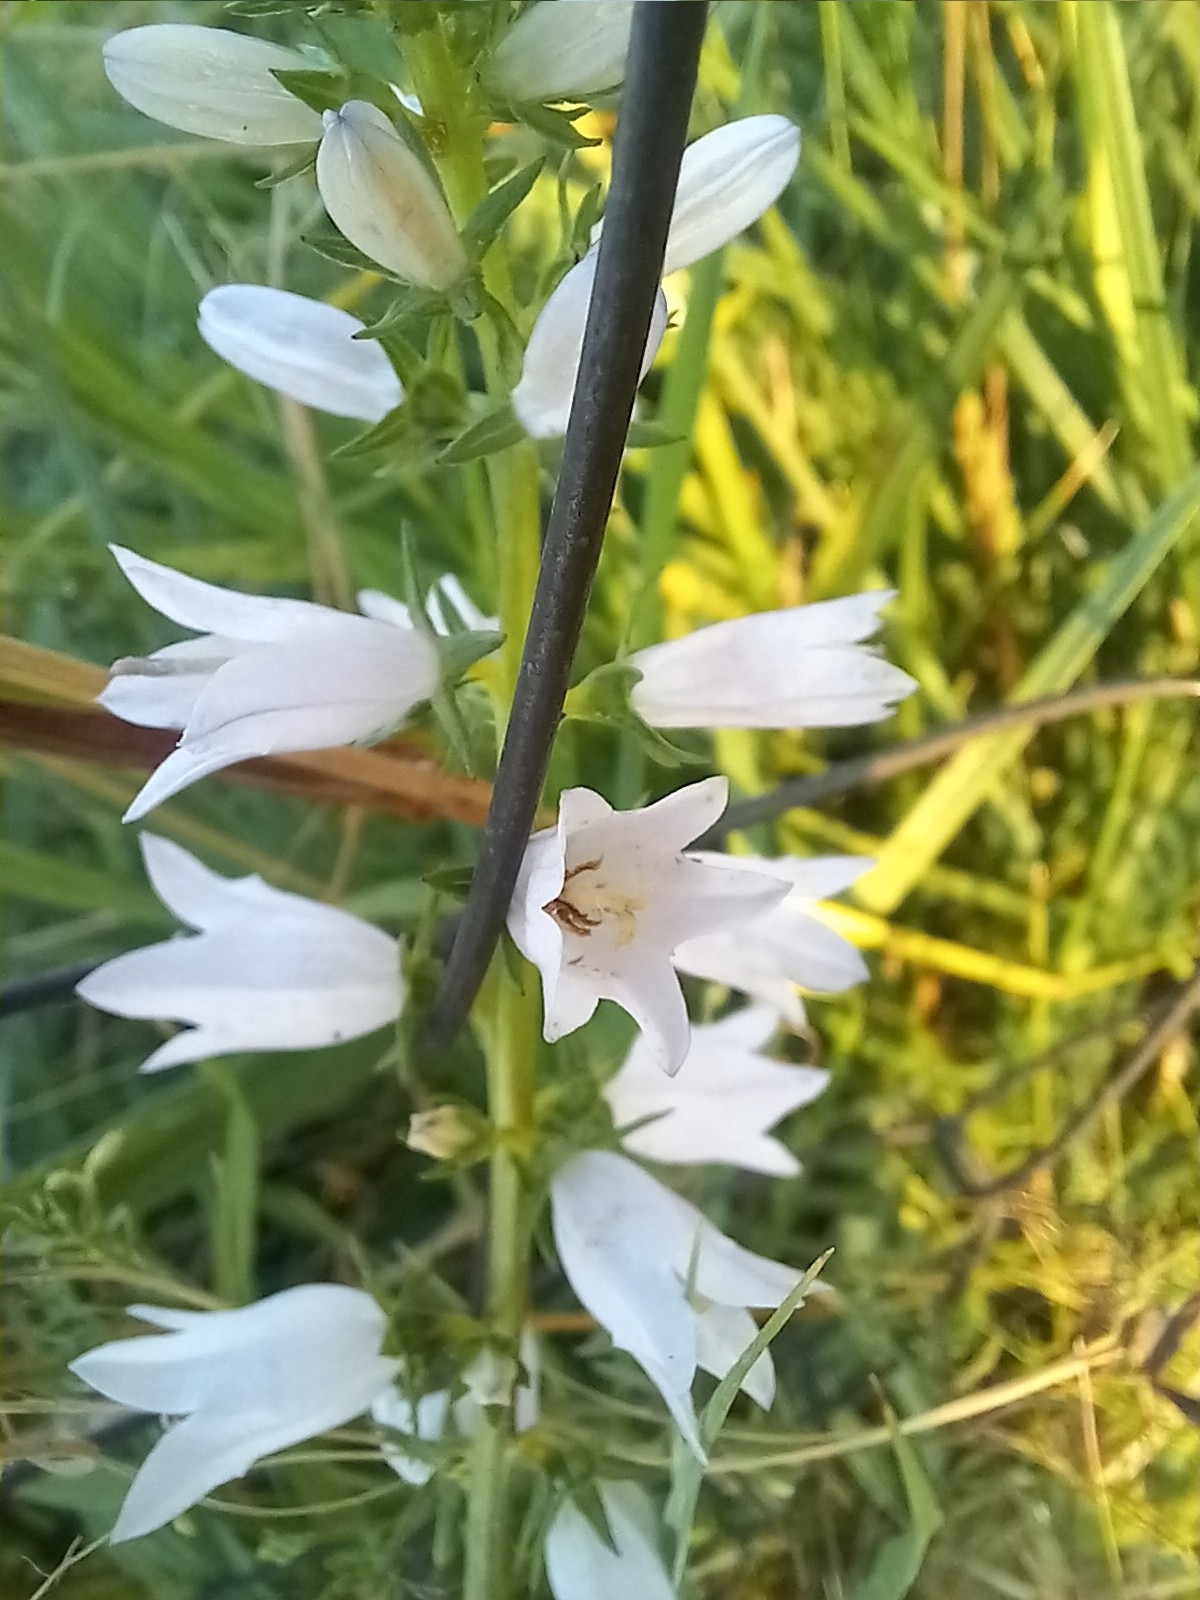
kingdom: Plantae
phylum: Tracheophyta
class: Magnoliopsida
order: Asterales
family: Campanulaceae
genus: Campanula
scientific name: Campanula bononiensis
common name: Pale bellflower
